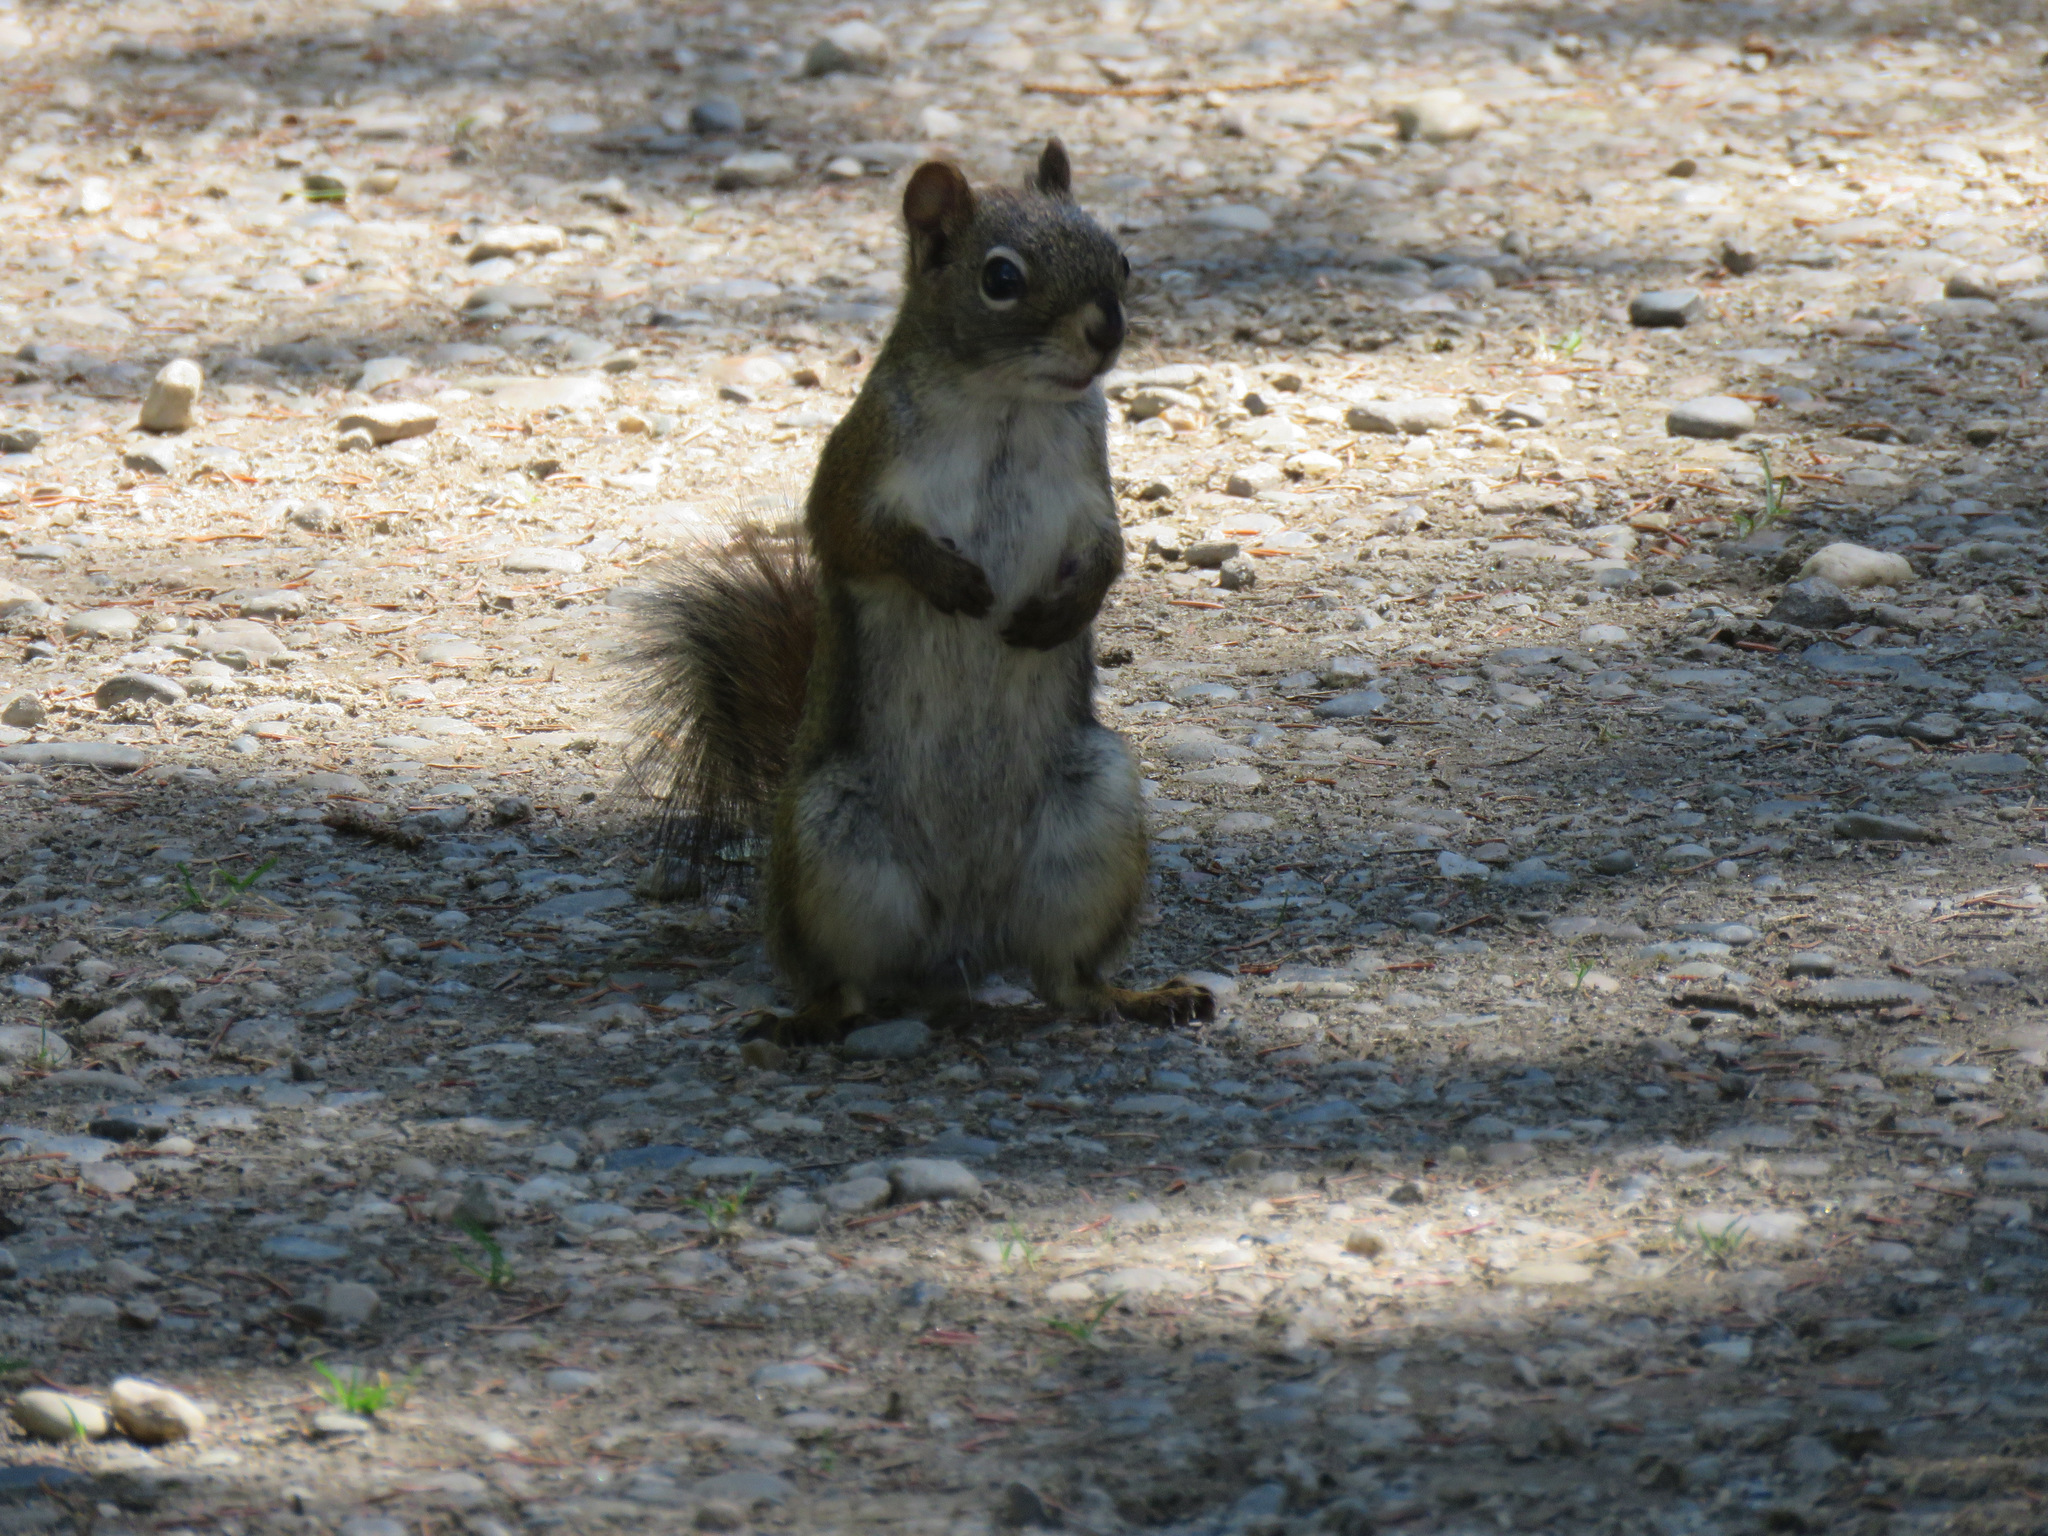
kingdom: Animalia
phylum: Chordata
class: Mammalia
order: Rodentia
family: Sciuridae
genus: Tamiasciurus
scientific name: Tamiasciurus hudsonicus
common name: Red squirrel
